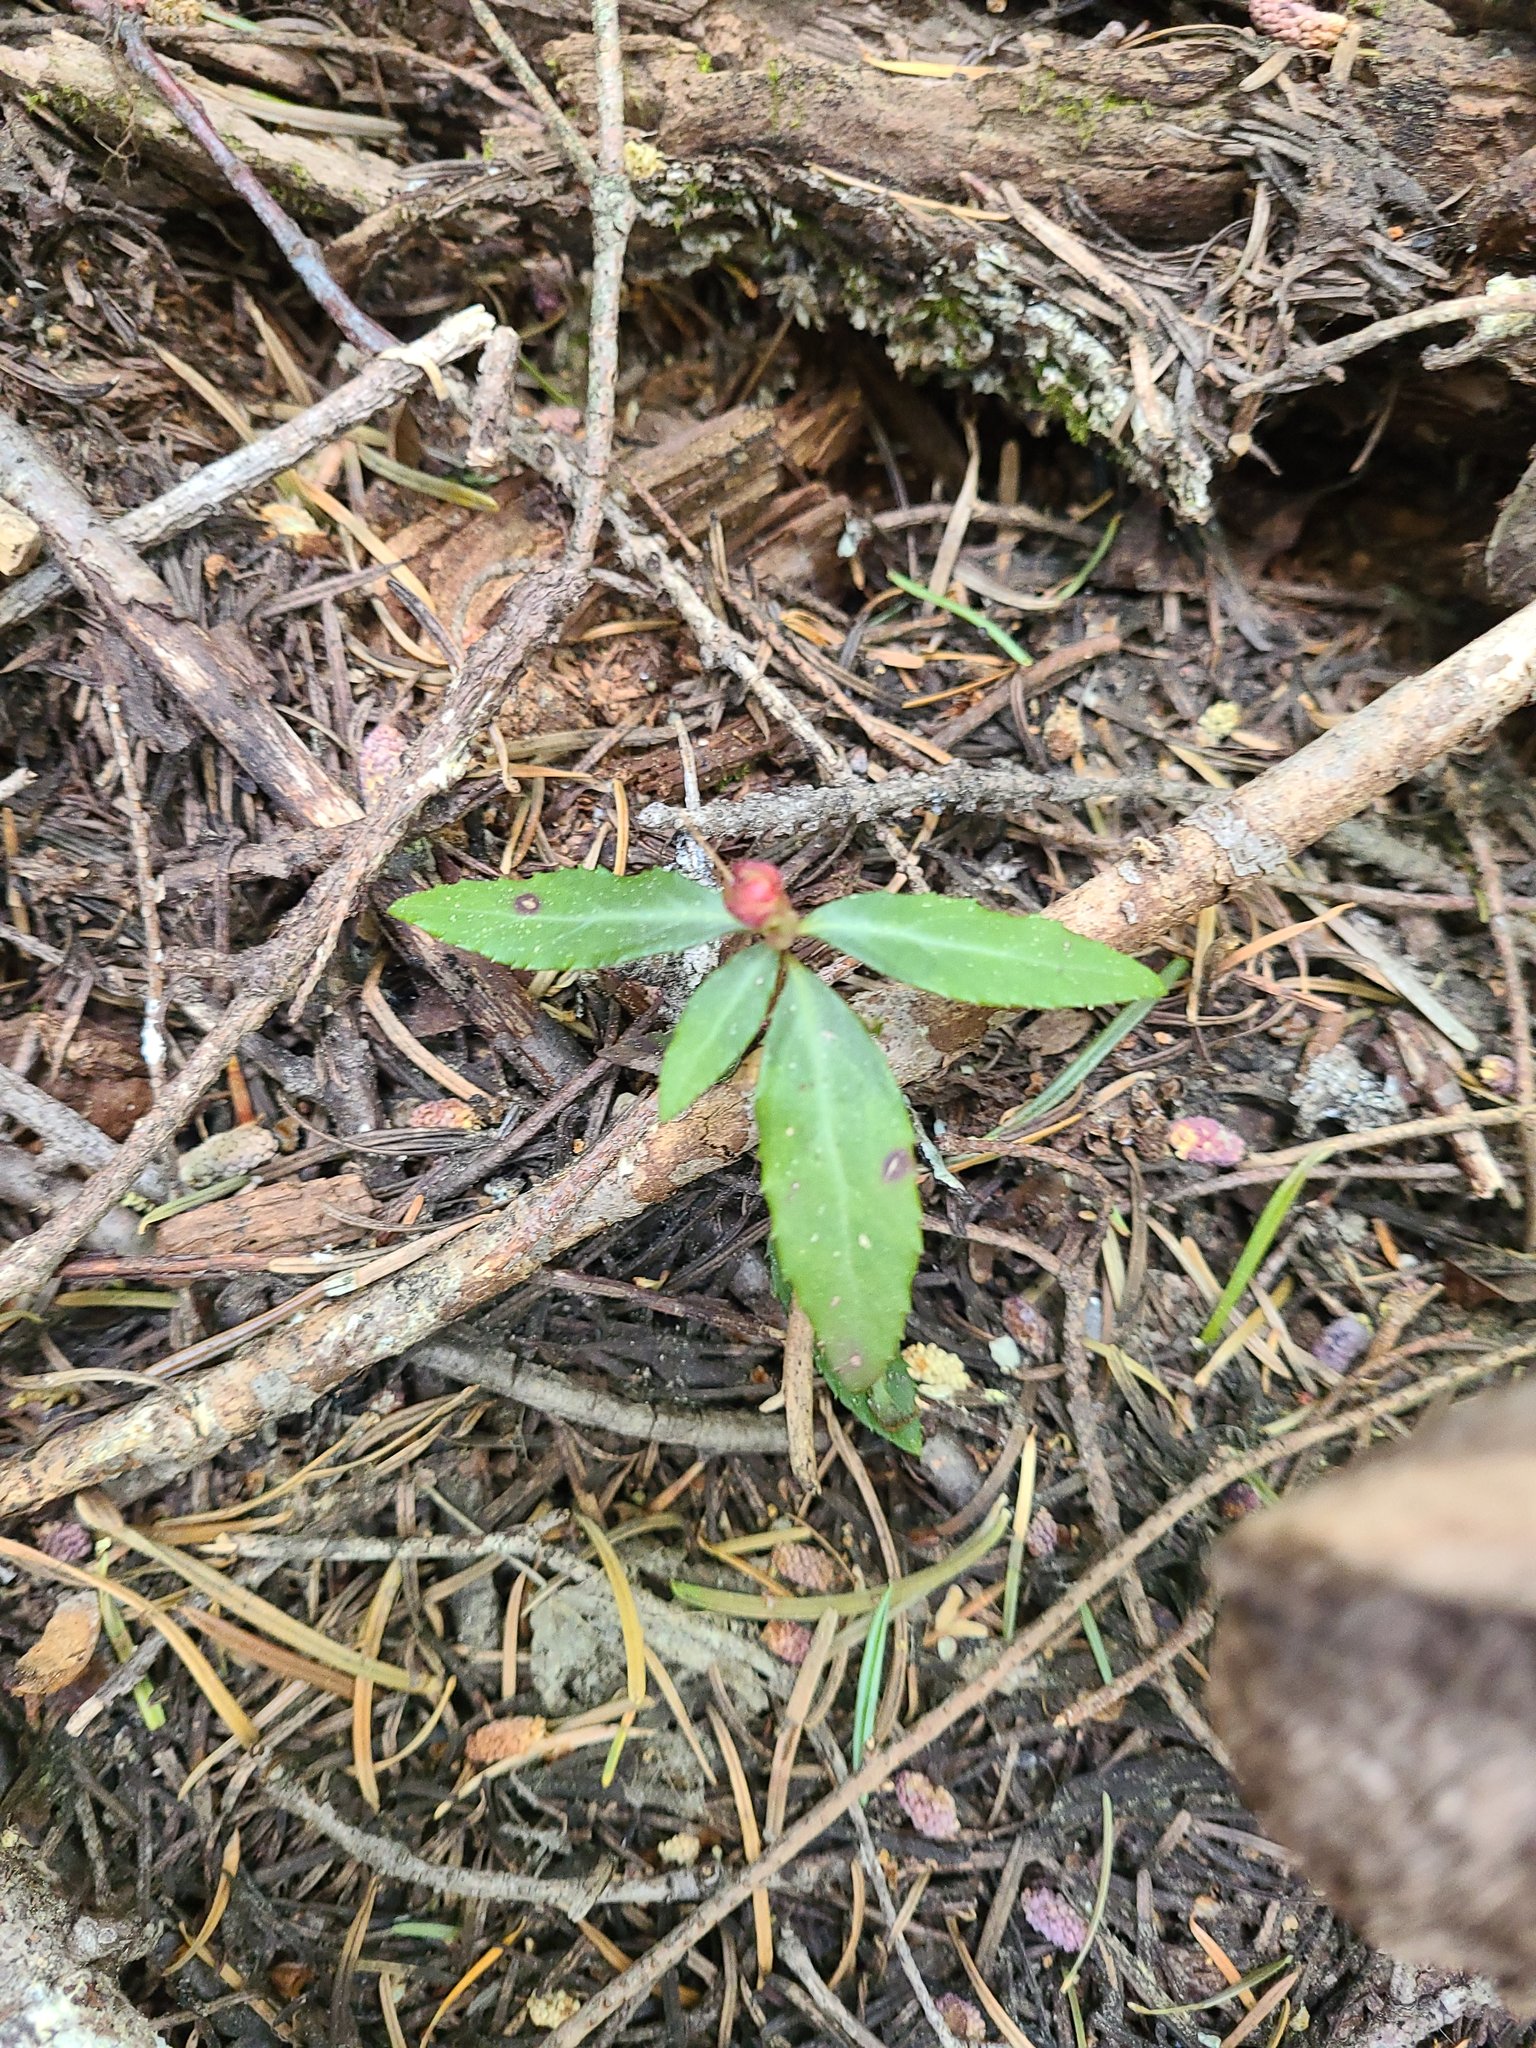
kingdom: Plantae
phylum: Tracheophyta
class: Magnoliopsida
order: Ericales
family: Ericaceae
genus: Chimaphila
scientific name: Chimaphila menziesii
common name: Menzies' pipsissewa
